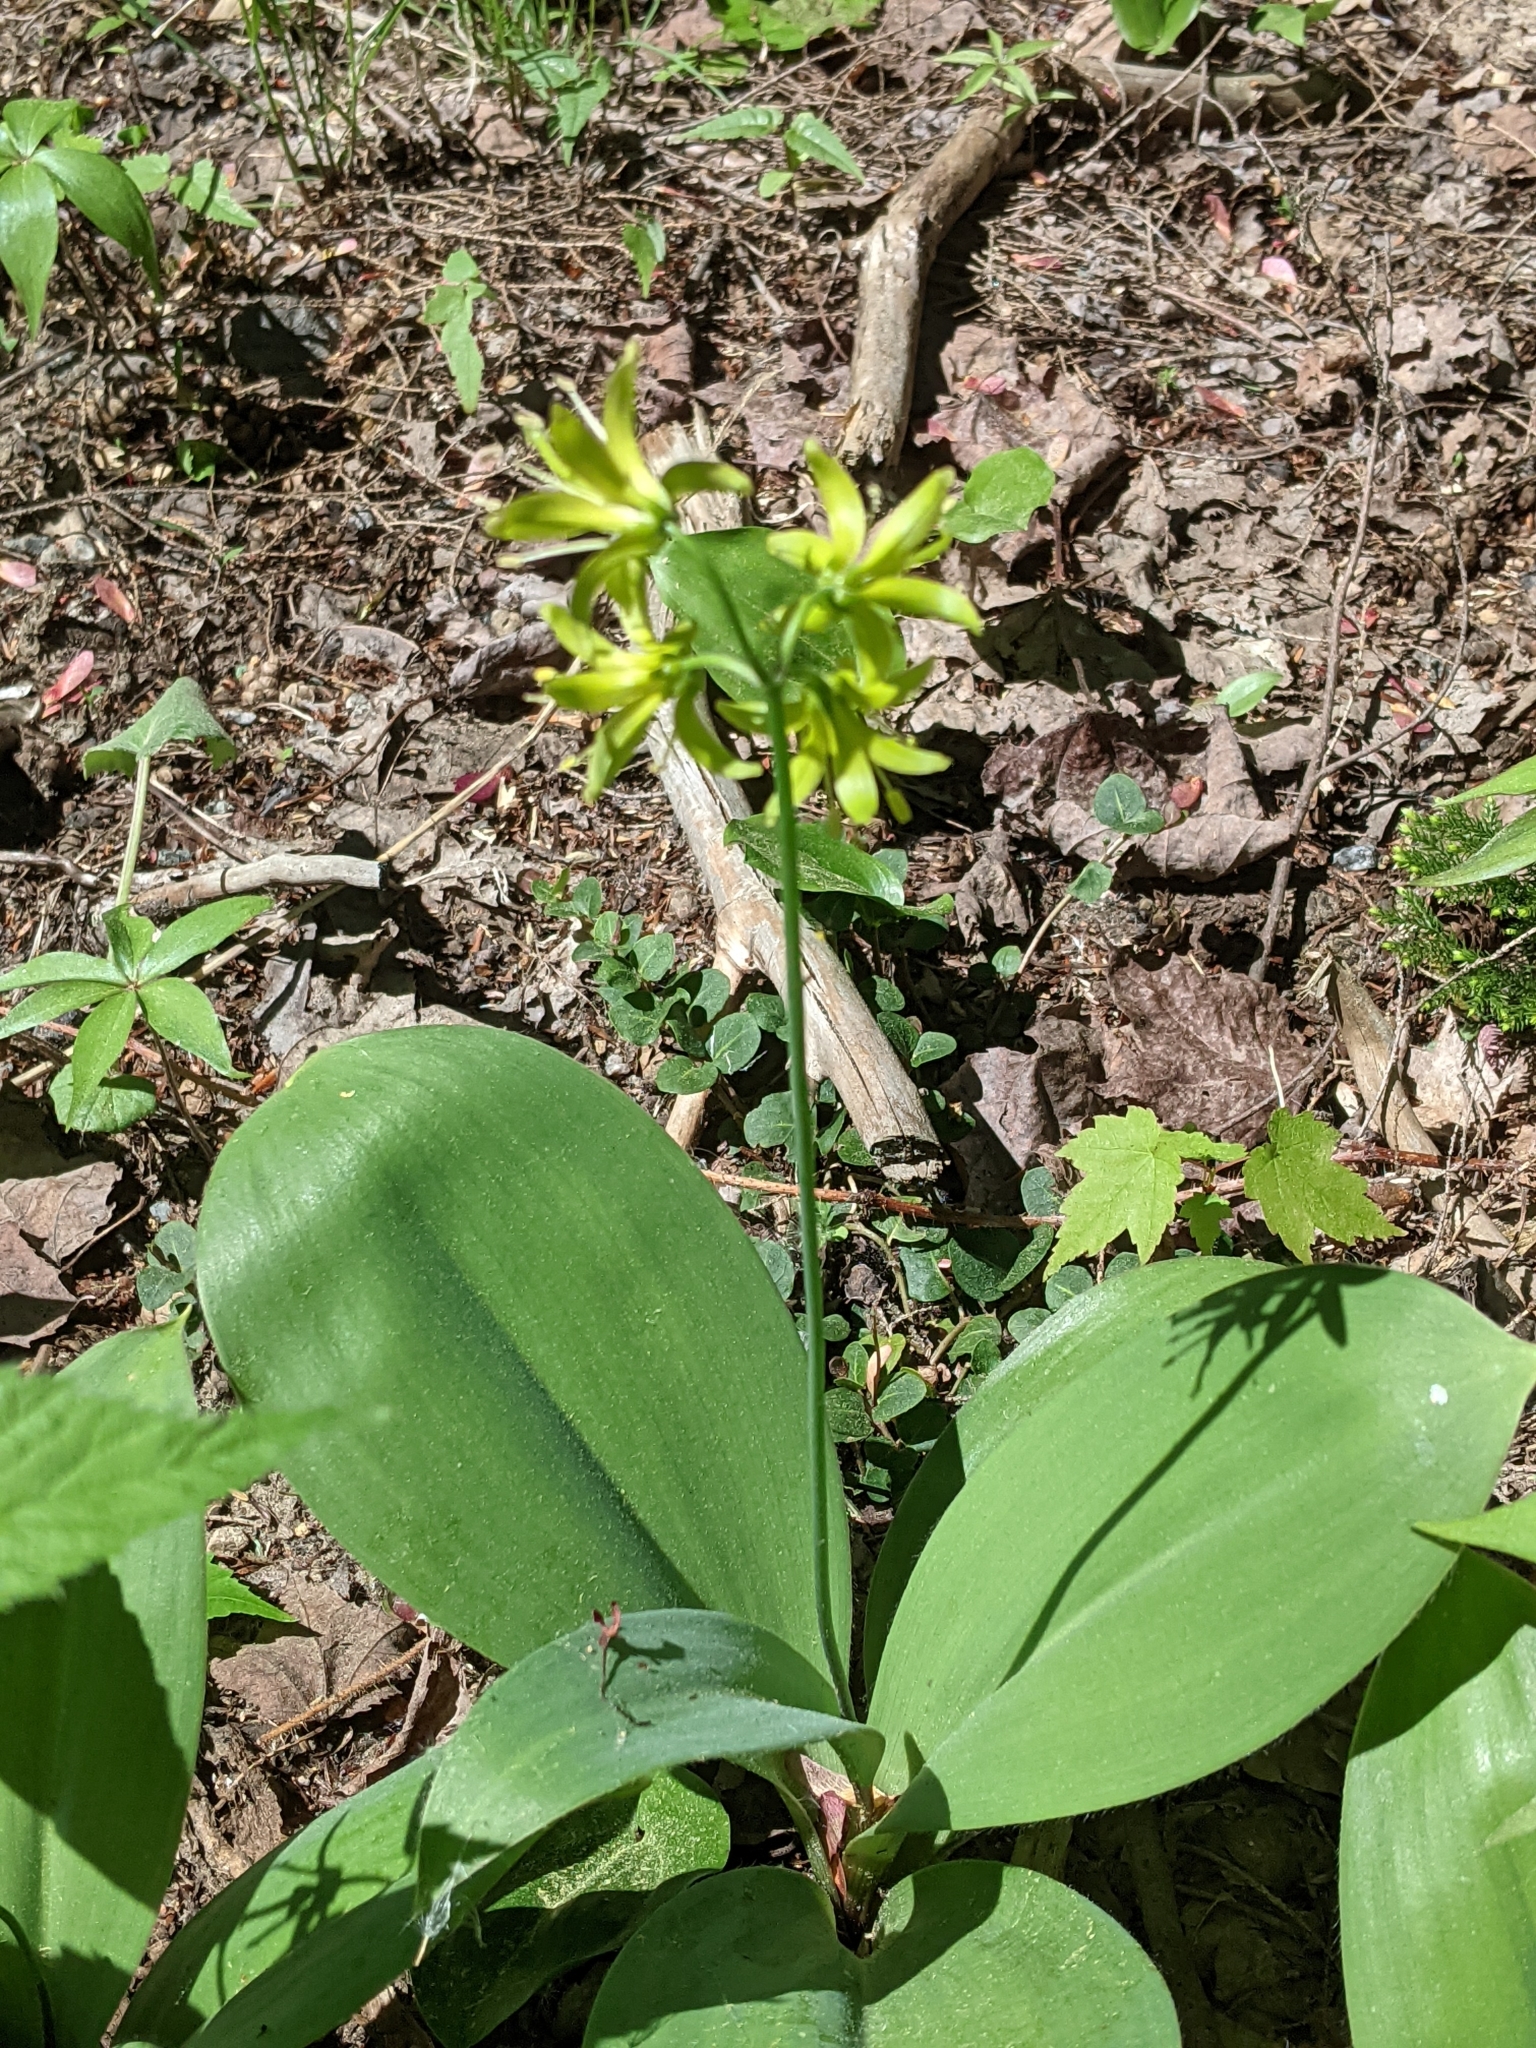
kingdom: Plantae
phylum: Tracheophyta
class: Liliopsida
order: Liliales
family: Liliaceae
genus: Clintonia
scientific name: Clintonia borealis
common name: Yellow clintonia
